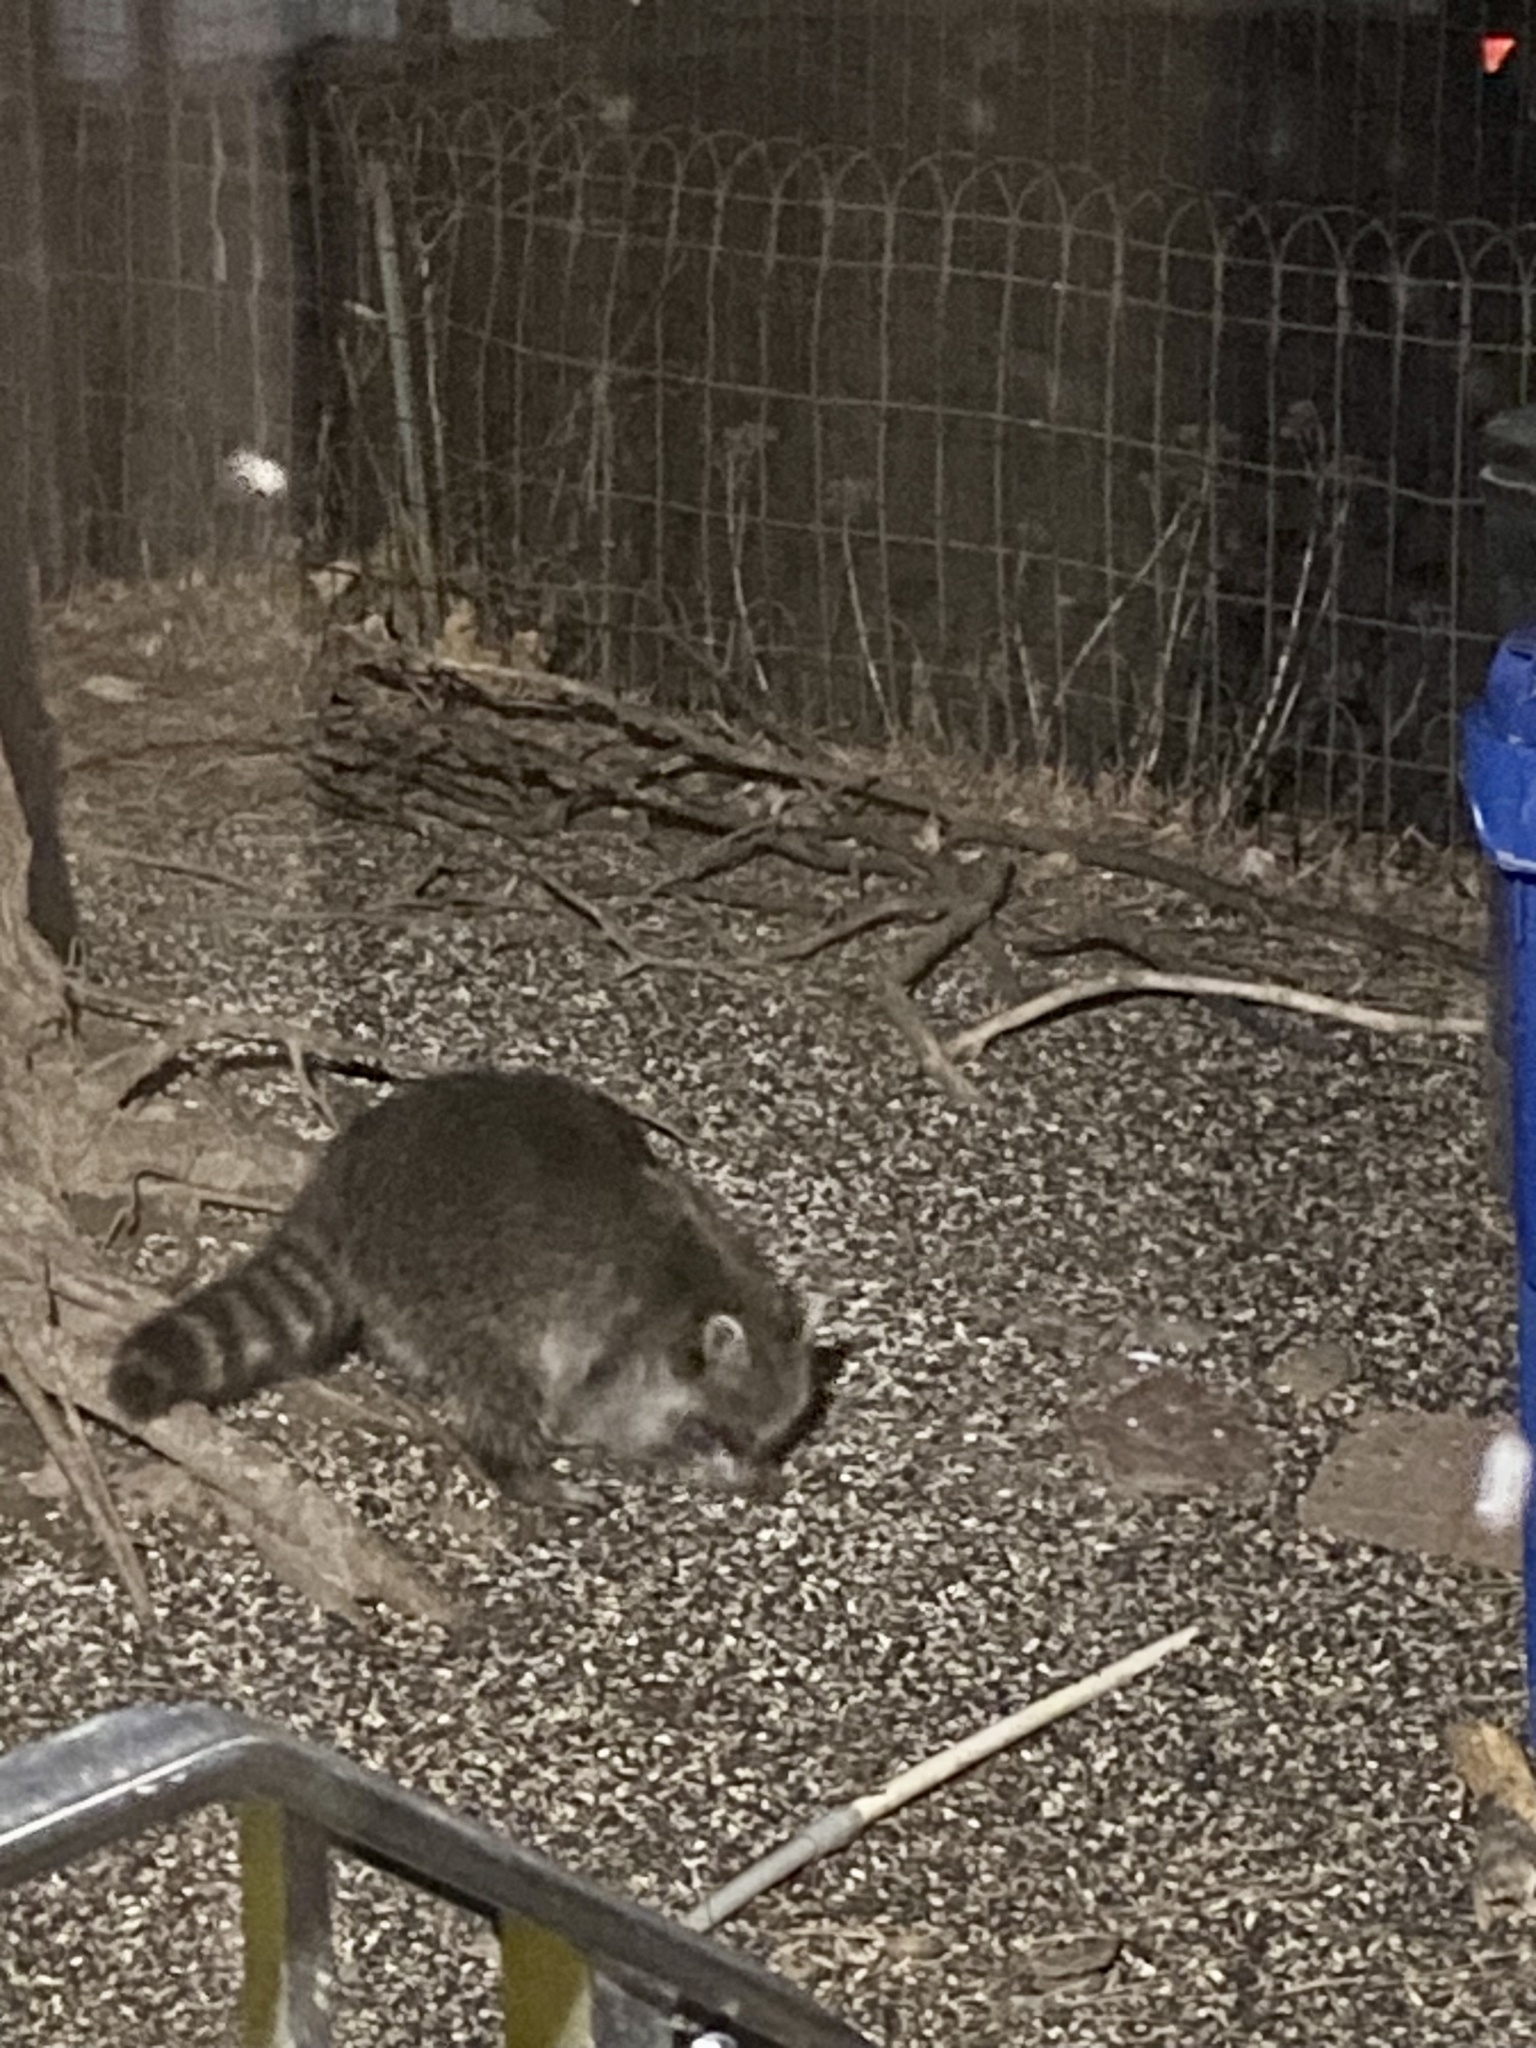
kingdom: Animalia
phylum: Chordata
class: Mammalia
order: Carnivora
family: Procyonidae
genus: Procyon
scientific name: Procyon lotor
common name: Raccoon
